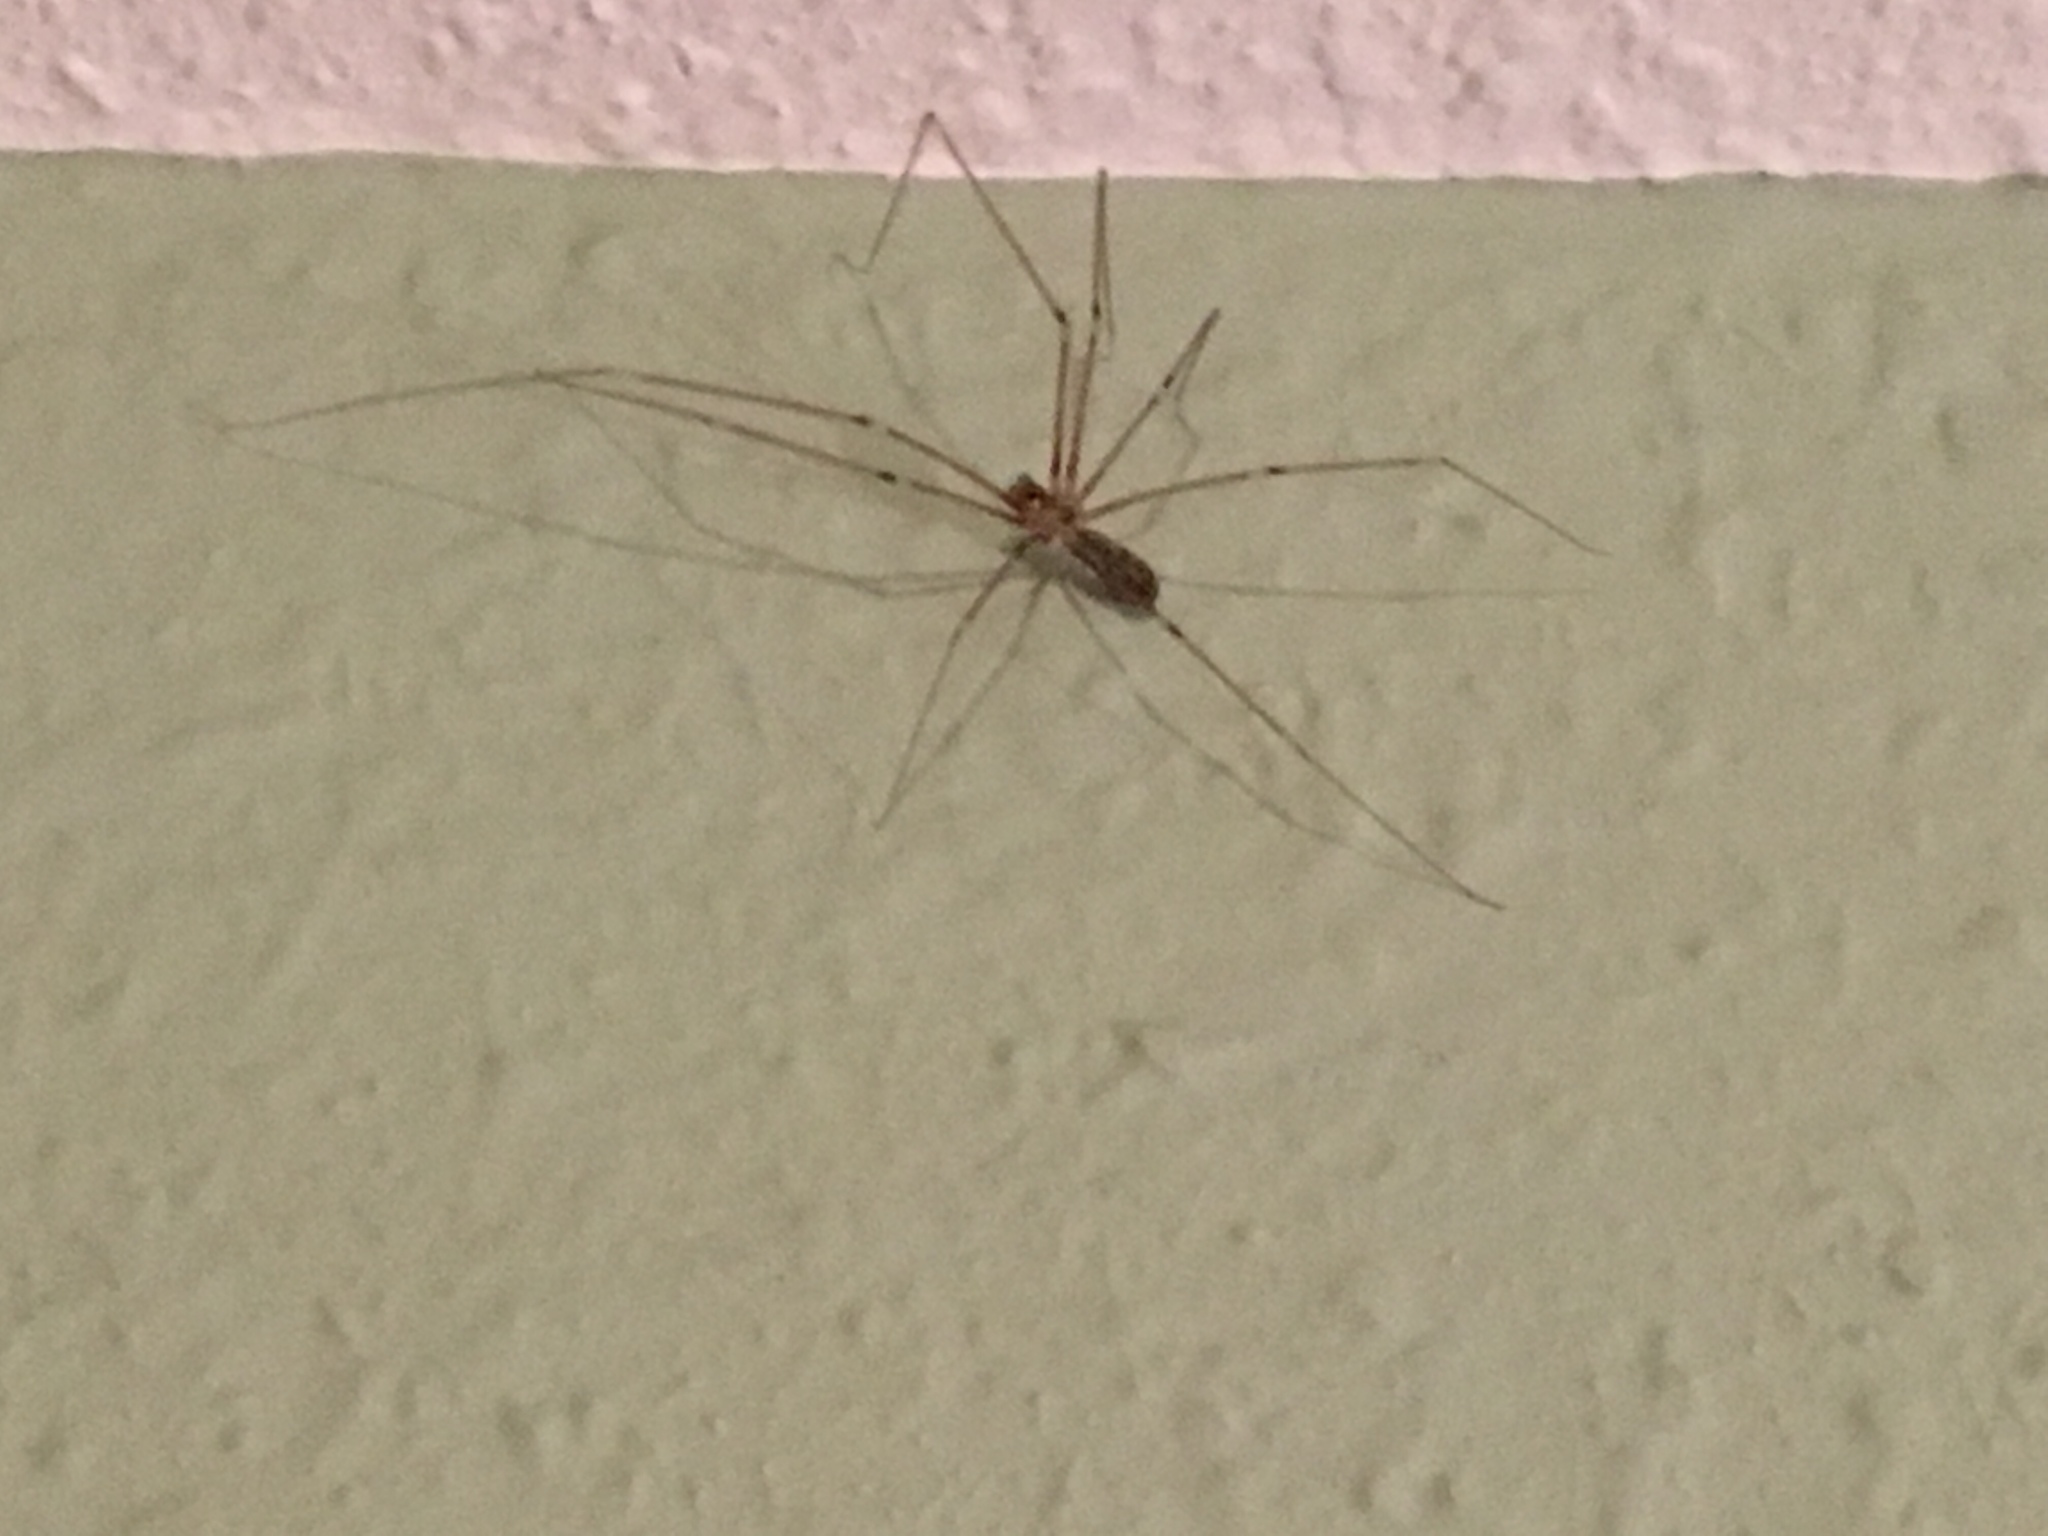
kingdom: Animalia
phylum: Arthropoda
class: Arachnida
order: Araneae
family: Pholcidae
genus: Pholcus
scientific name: Pholcus phalangioides
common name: Longbodied cellar spider
